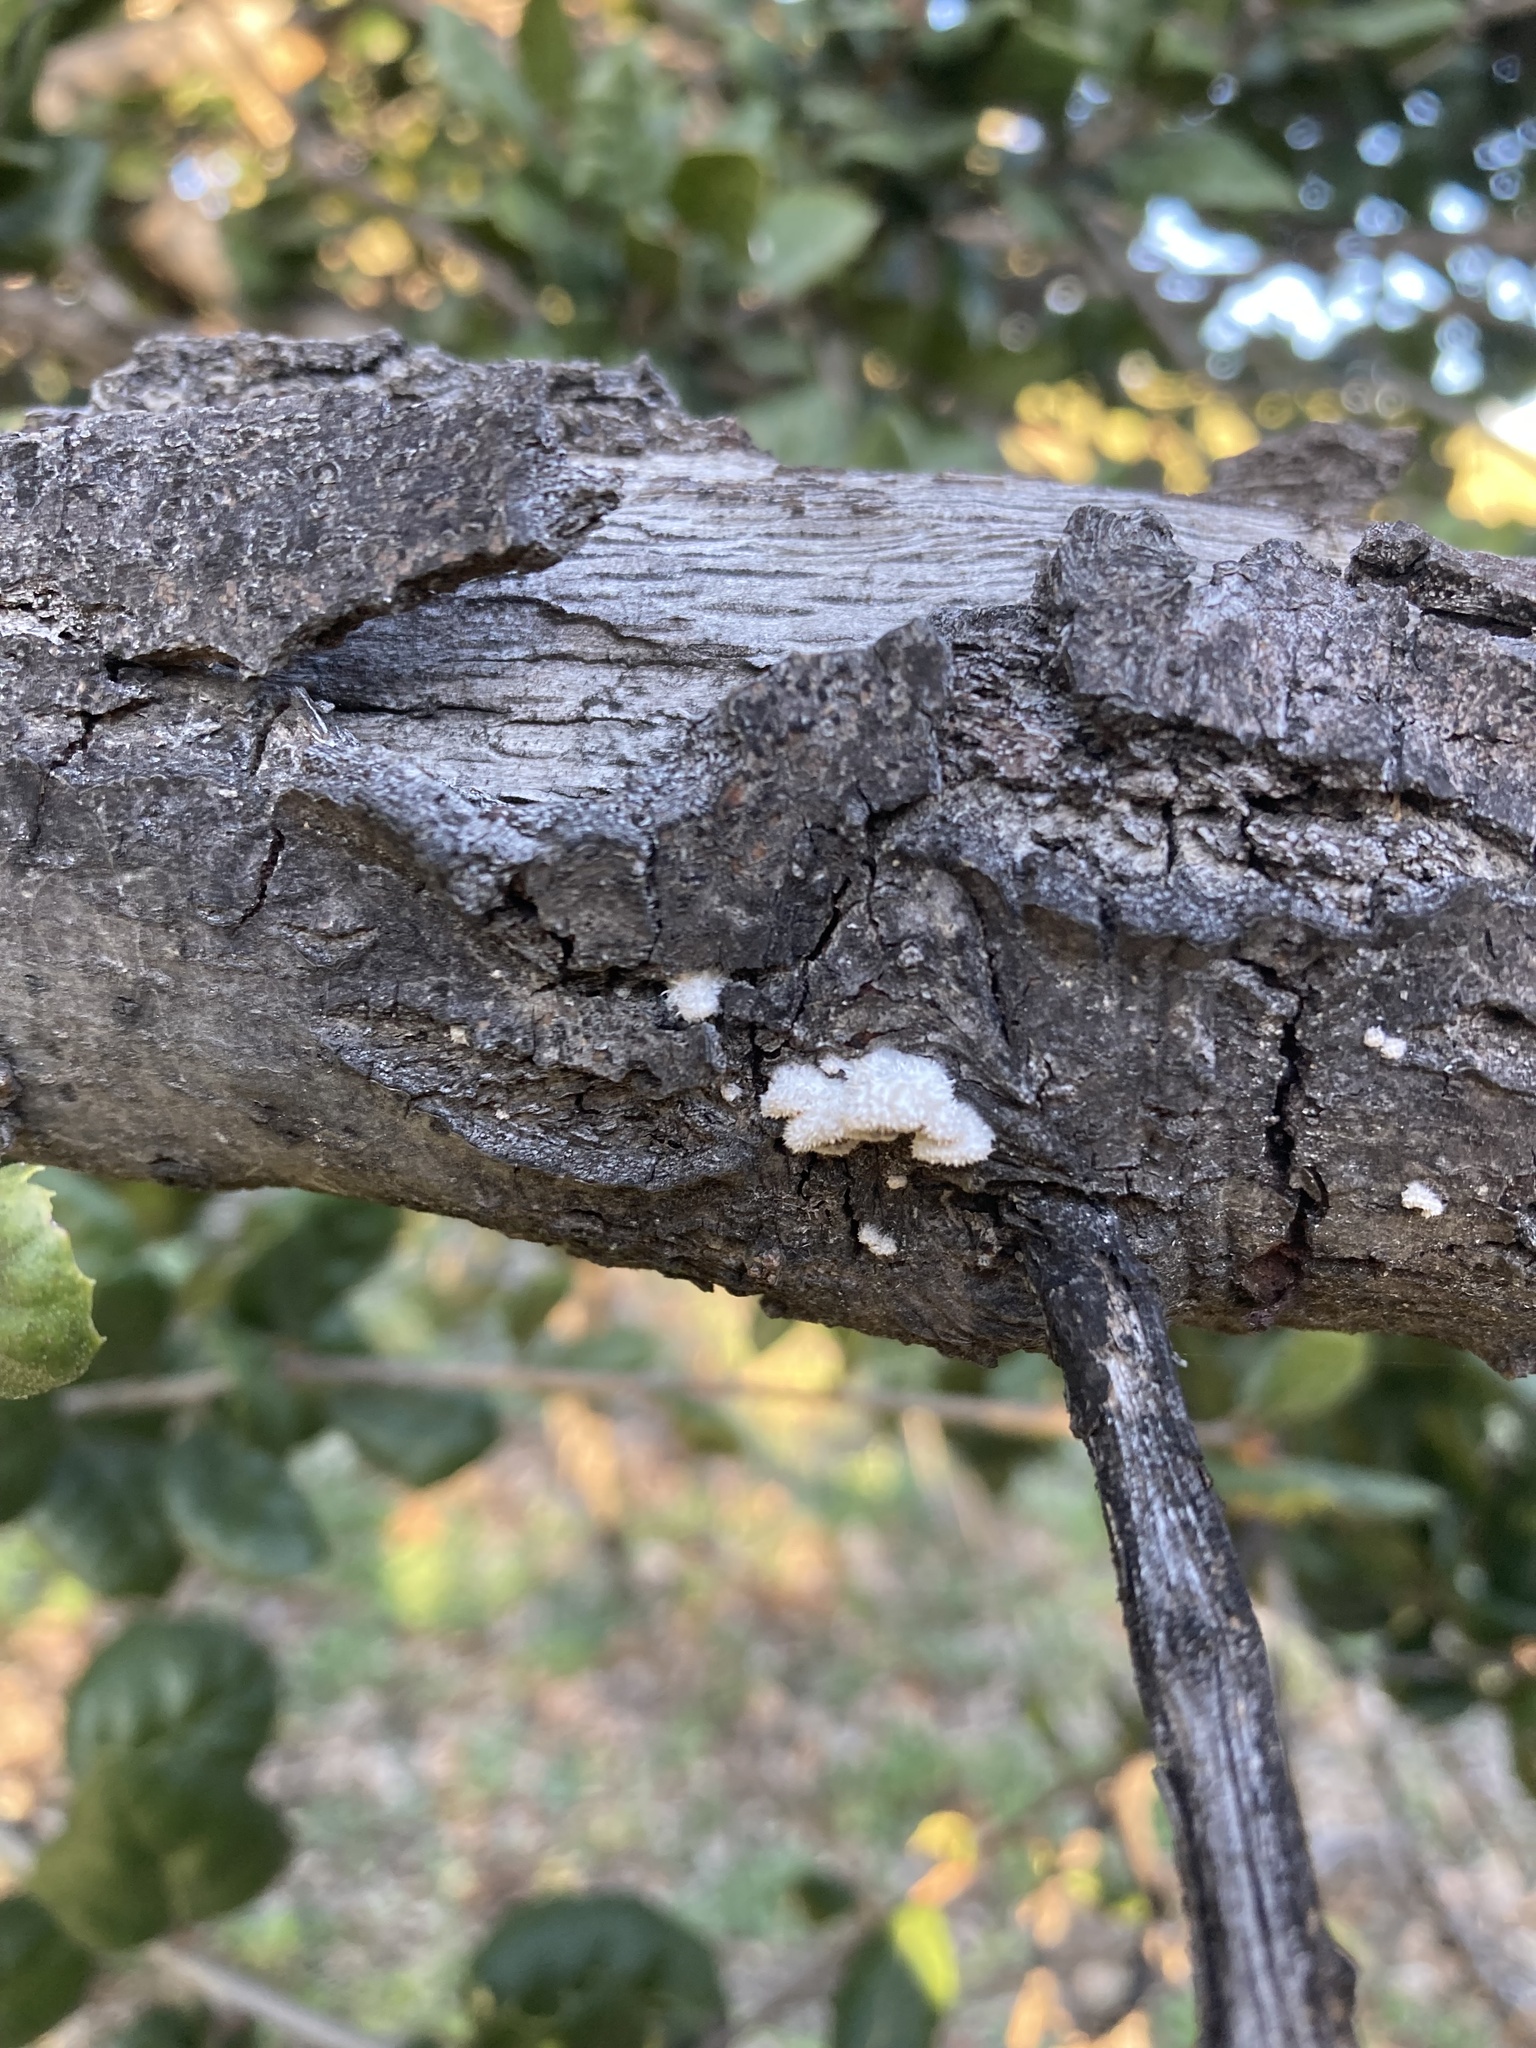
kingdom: Fungi
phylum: Basidiomycota
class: Agaricomycetes
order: Agaricales
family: Schizophyllaceae
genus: Schizophyllum
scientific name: Schizophyllum commune
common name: Common porecrust
